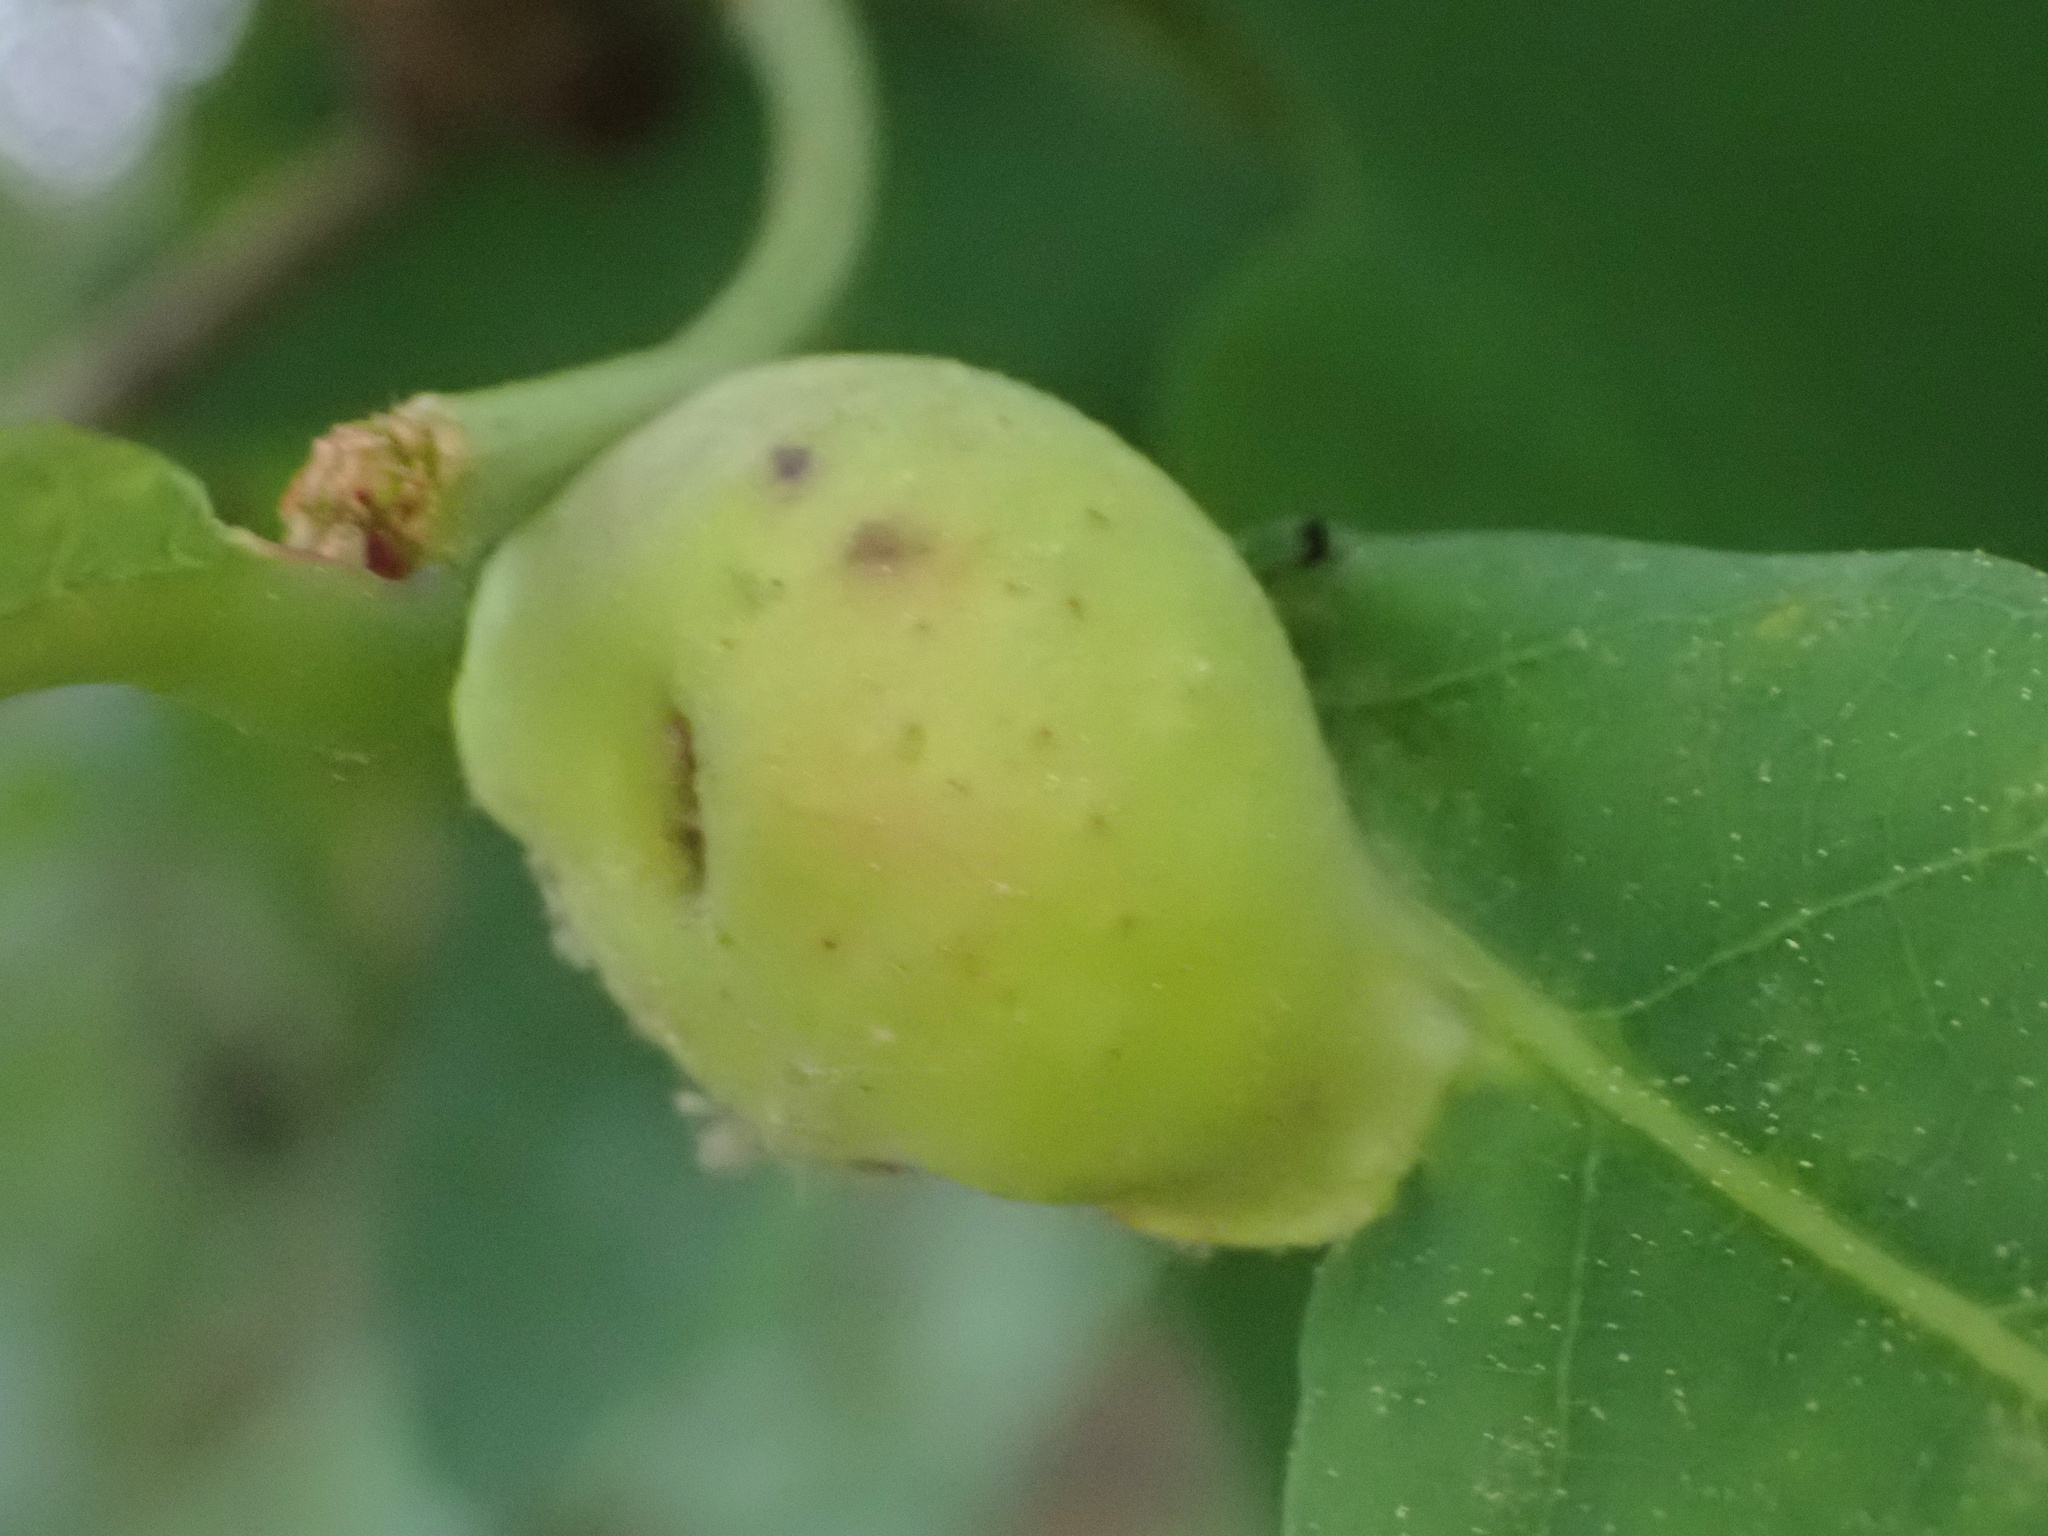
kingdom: Animalia
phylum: Arthropoda
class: Insecta
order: Hymenoptera
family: Cynipidae
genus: Andricus
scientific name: Andricus
